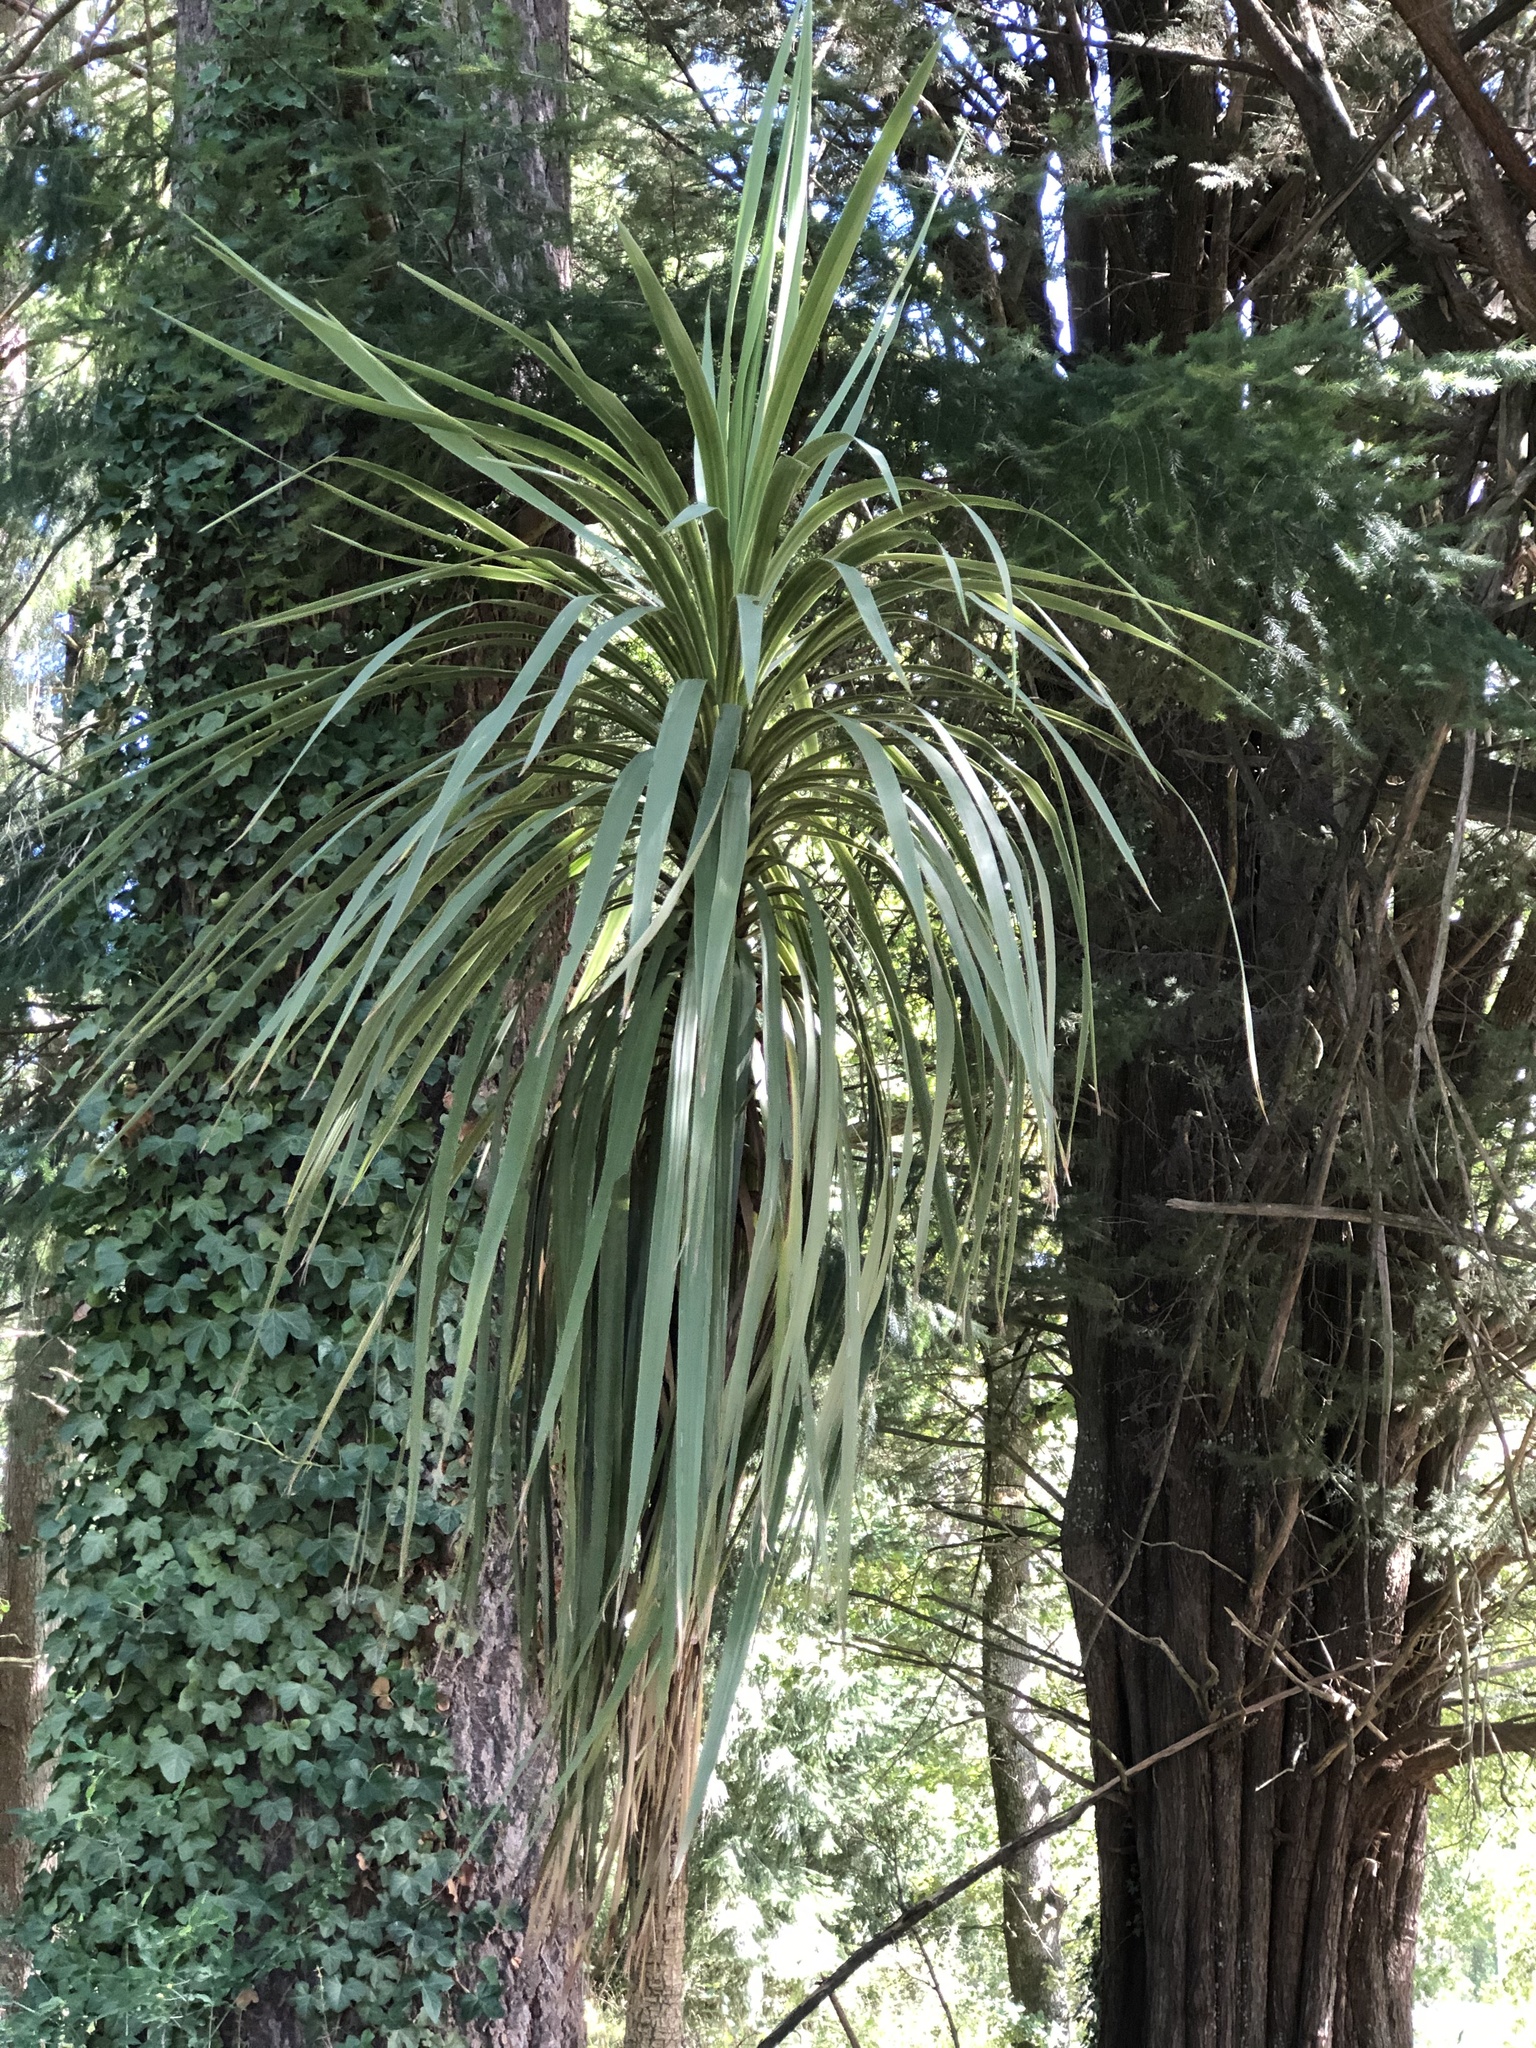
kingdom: Plantae
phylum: Tracheophyta
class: Liliopsida
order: Asparagales
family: Asparagaceae
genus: Cordyline
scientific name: Cordyline australis
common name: Cabbage-palm
